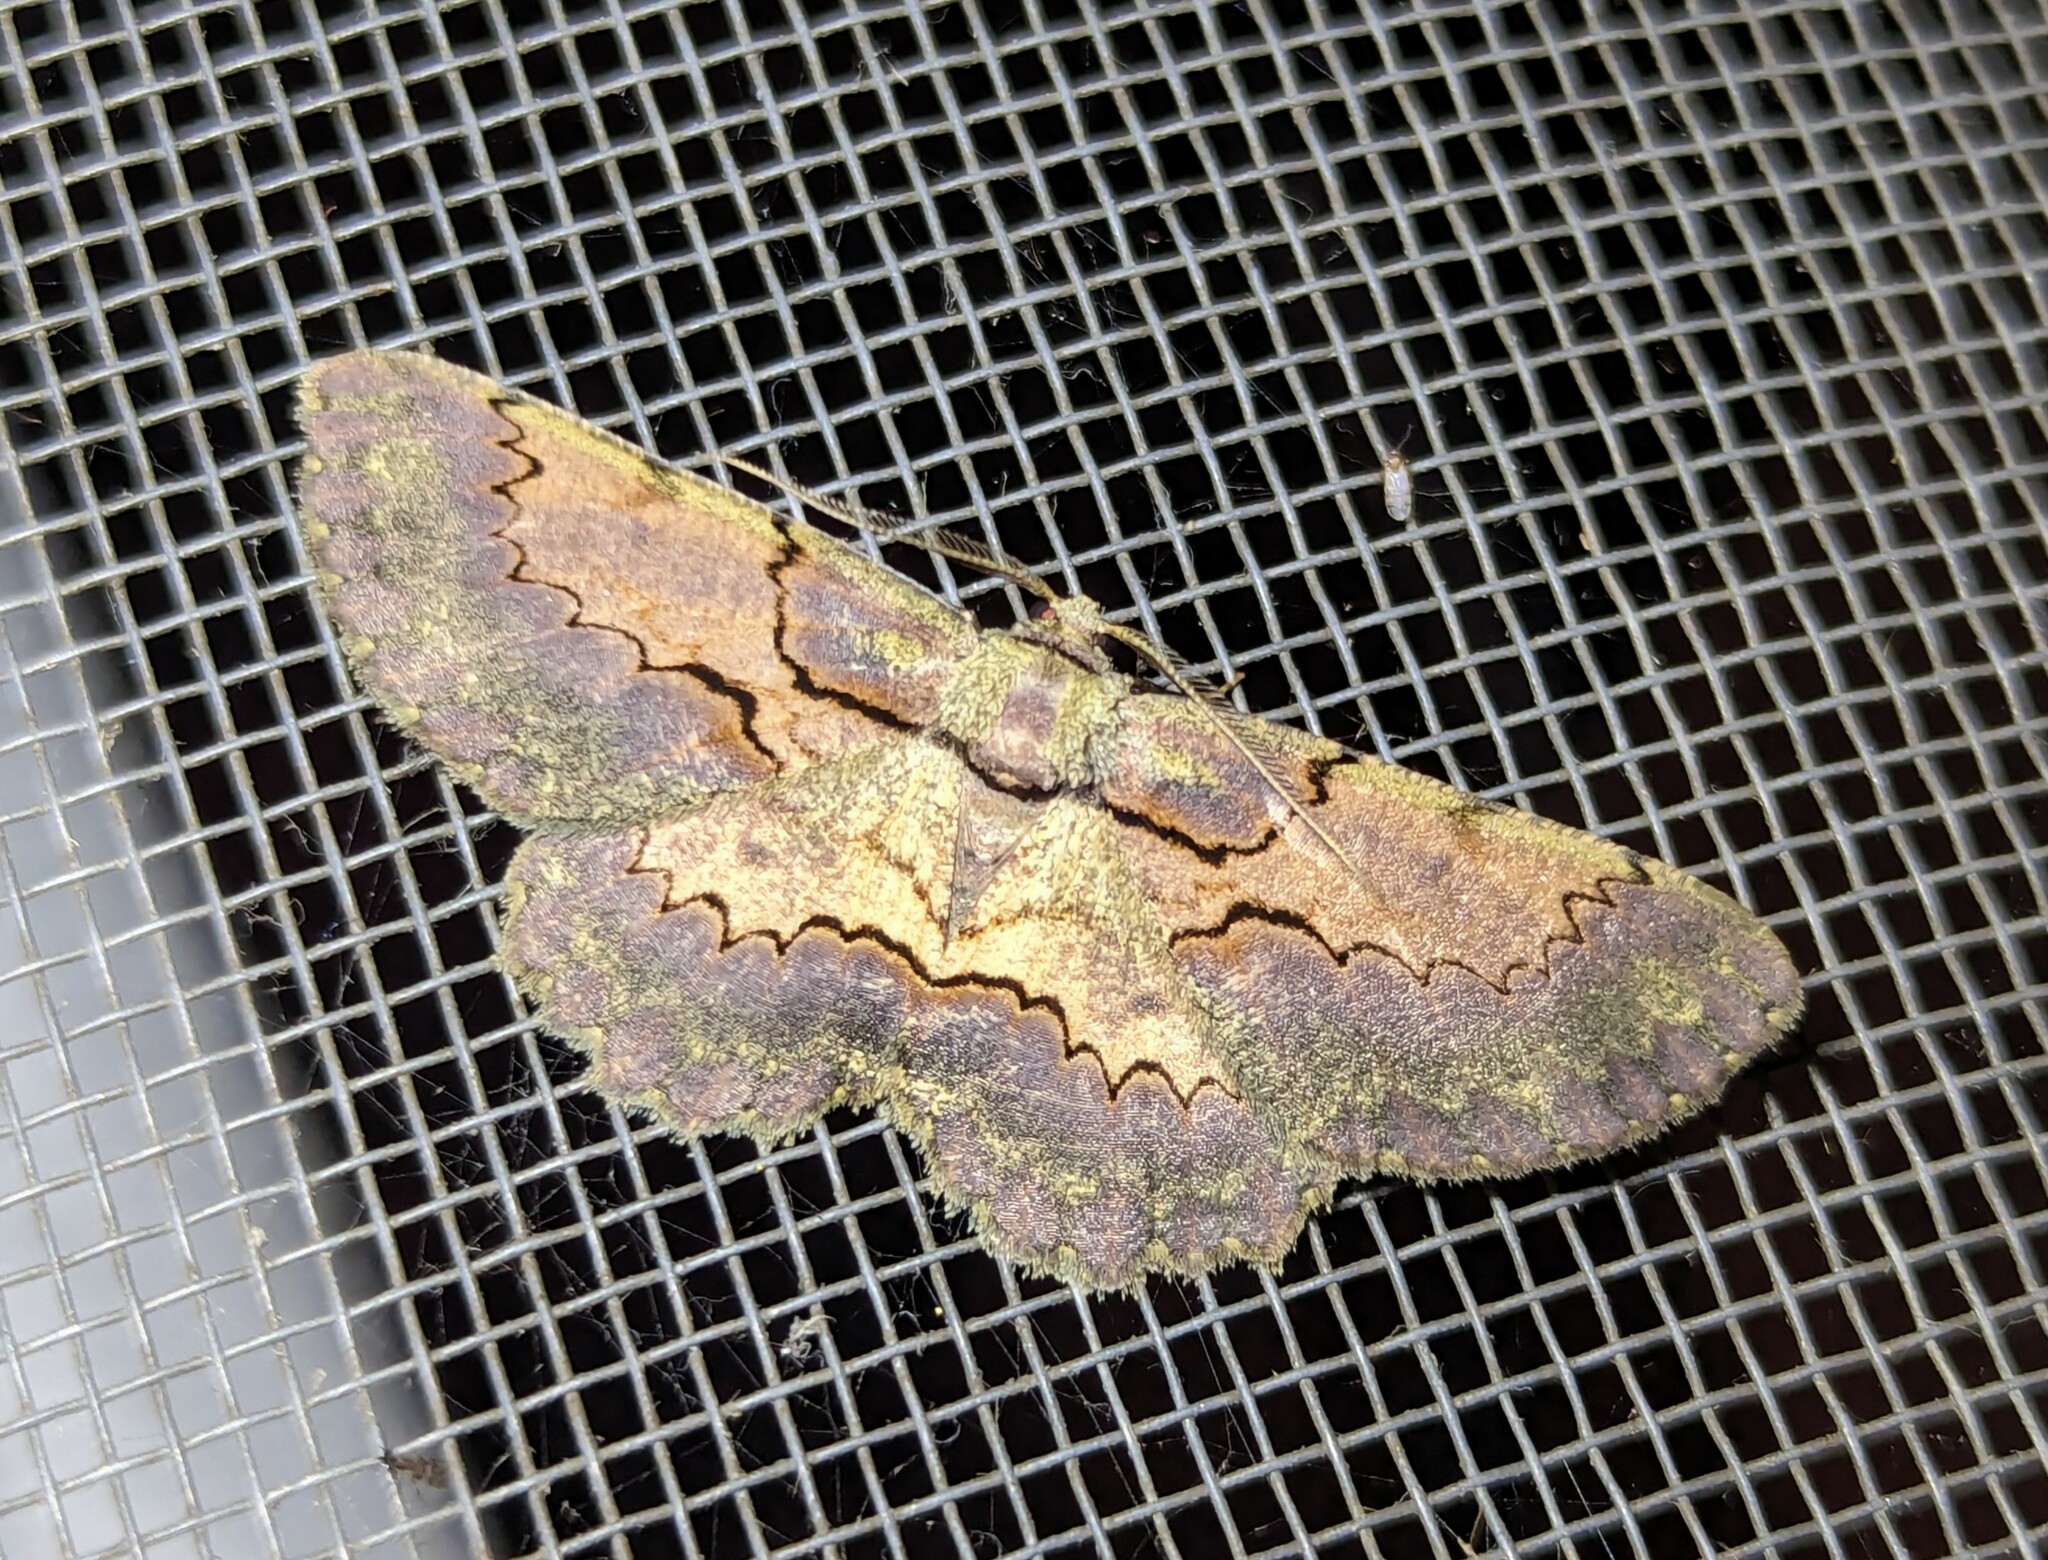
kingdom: Animalia
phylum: Arthropoda
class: Insecta
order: Lepidoptera
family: Geometridae
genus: Stenalcidia
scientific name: Stenalcidia warreni
